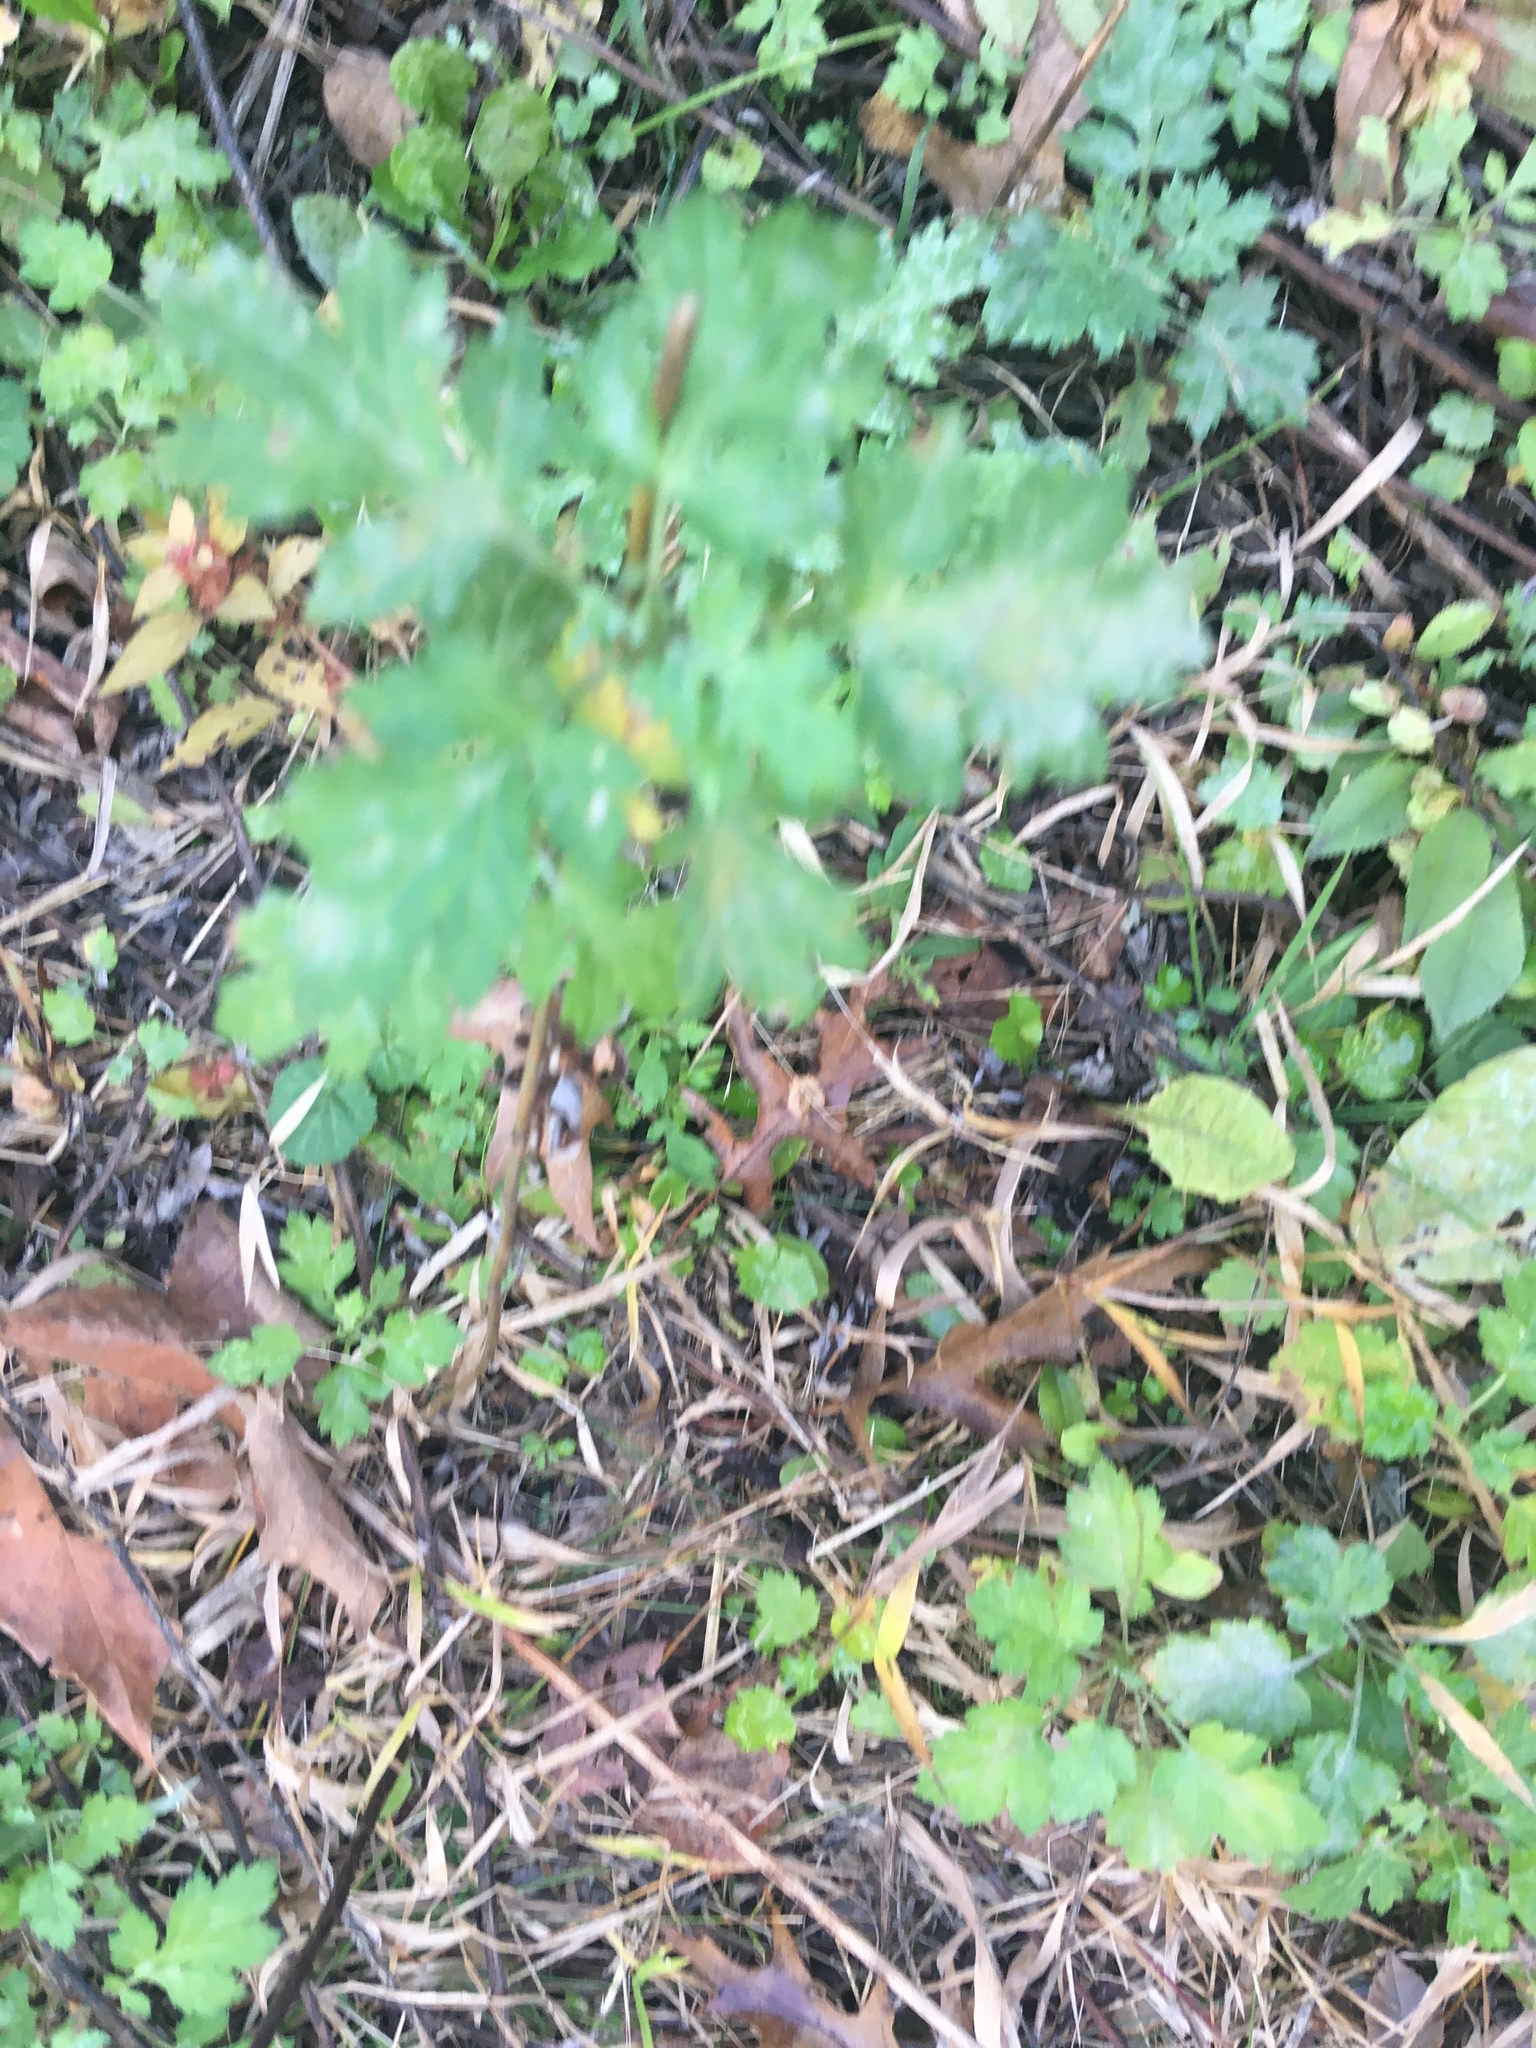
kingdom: Plantae
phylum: Tracheophyta
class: Magnoliopsida
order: Asterales
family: Asteraceae
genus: Artemisia
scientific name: Artemisia vulgaris
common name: Mugwort
